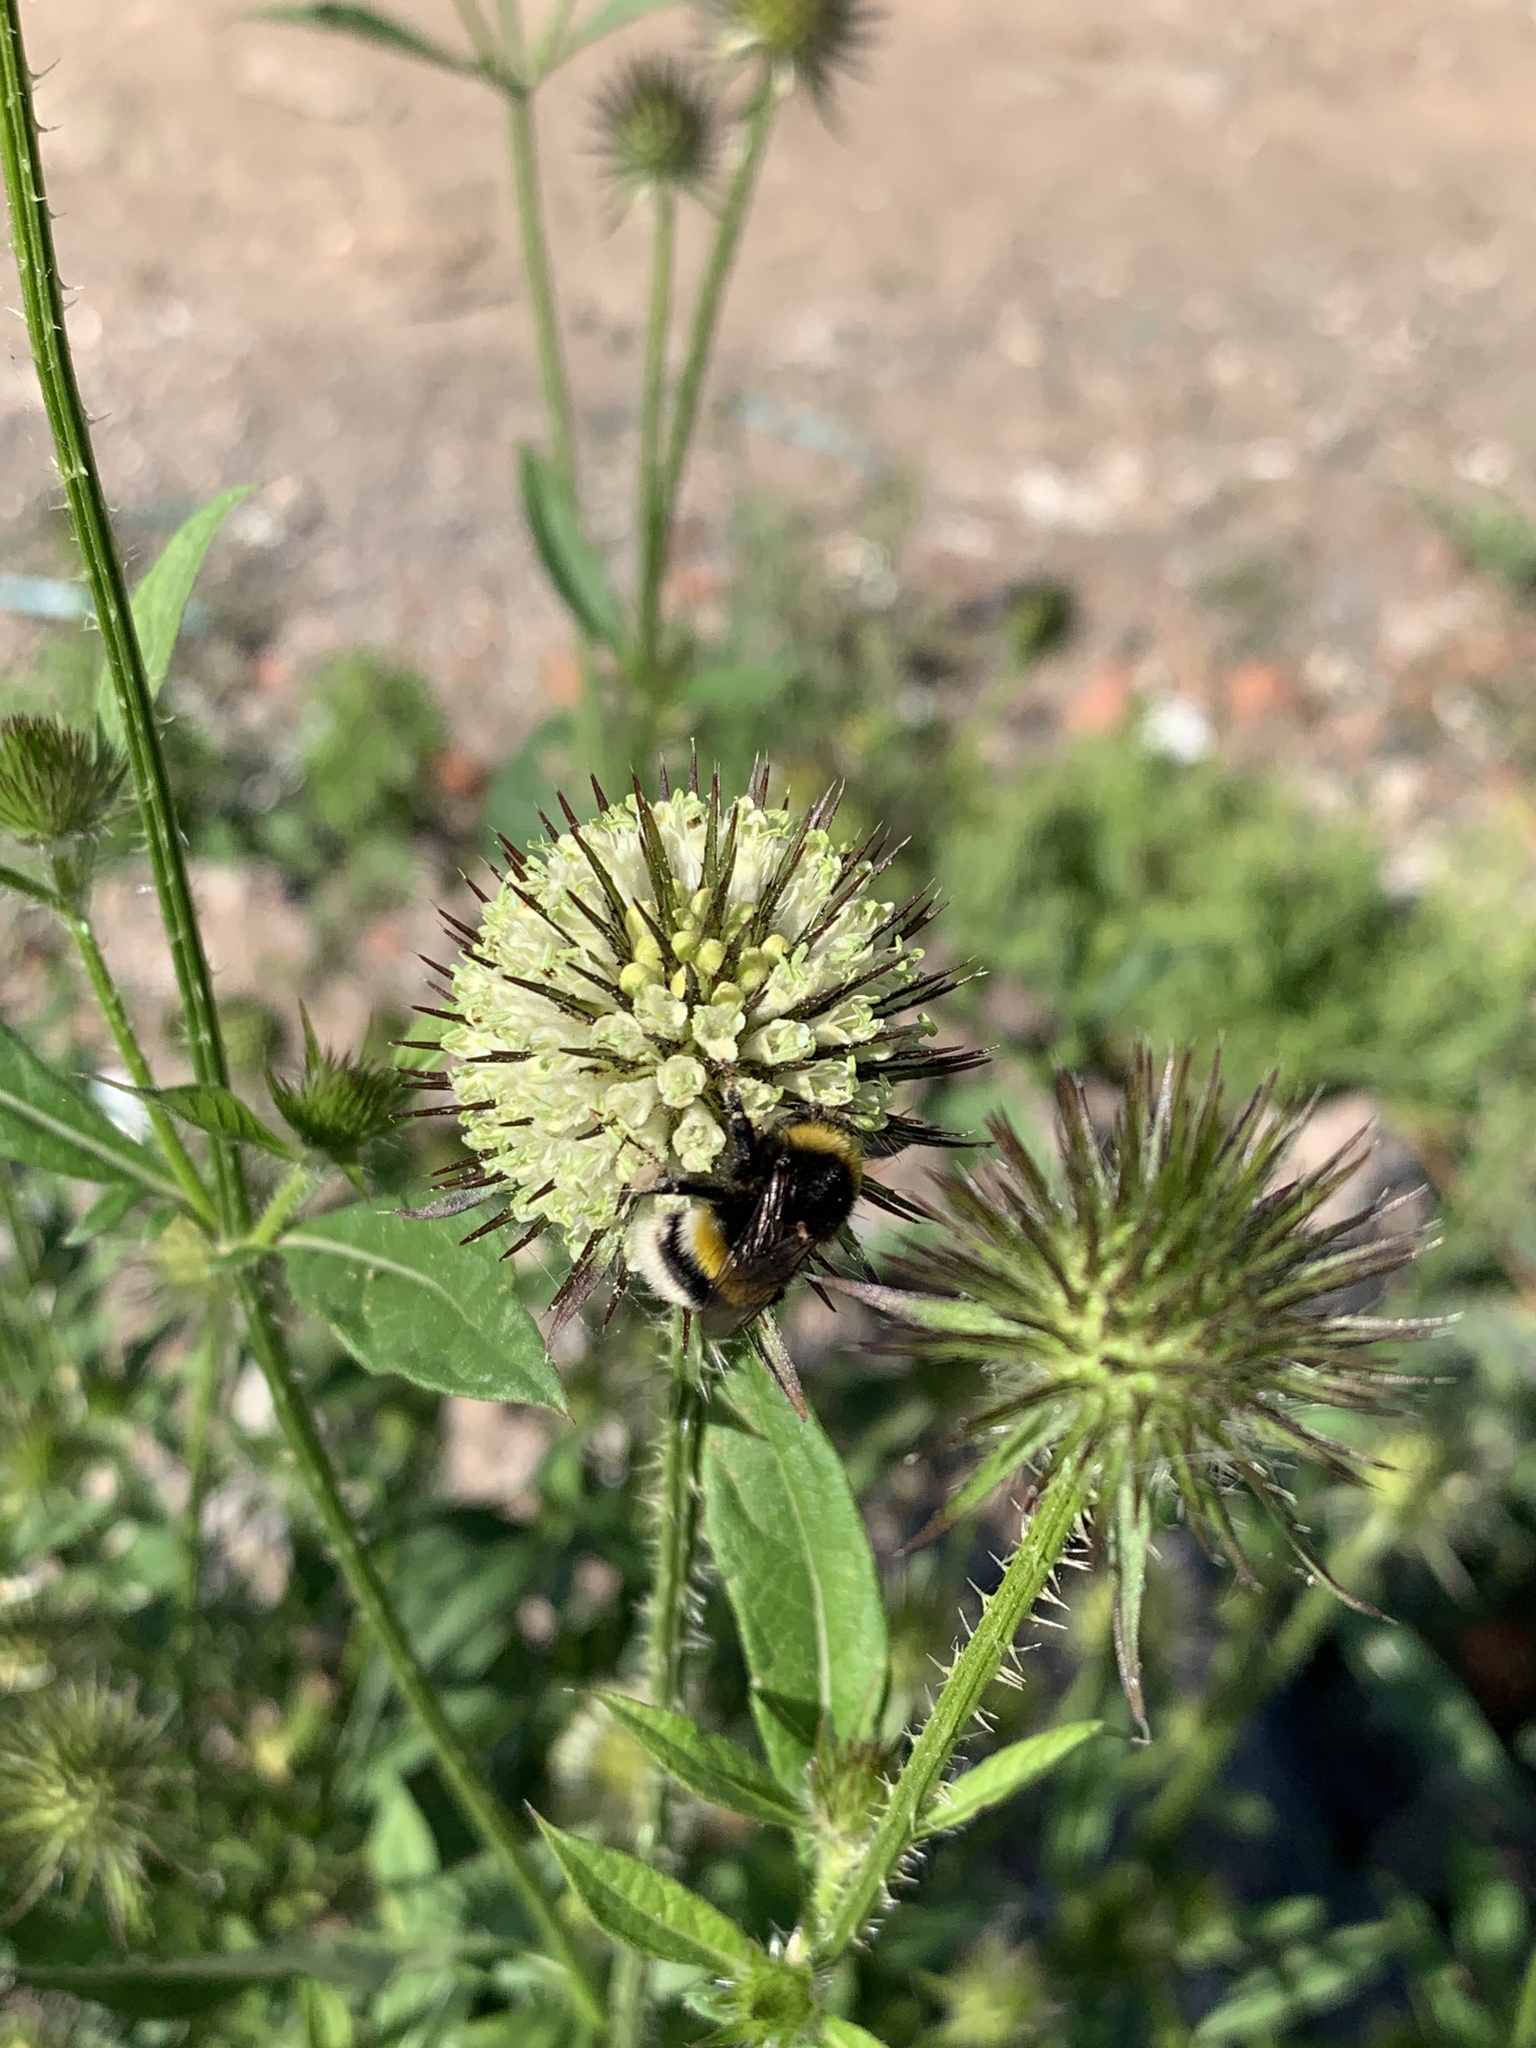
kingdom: Plantae
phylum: Tracheophyta
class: Magnoliopsida
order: Dipsacales
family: Caprifoliaceae
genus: Dipsacus
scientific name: Dipsacus strigosus
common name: Yellow-flowered teasel
